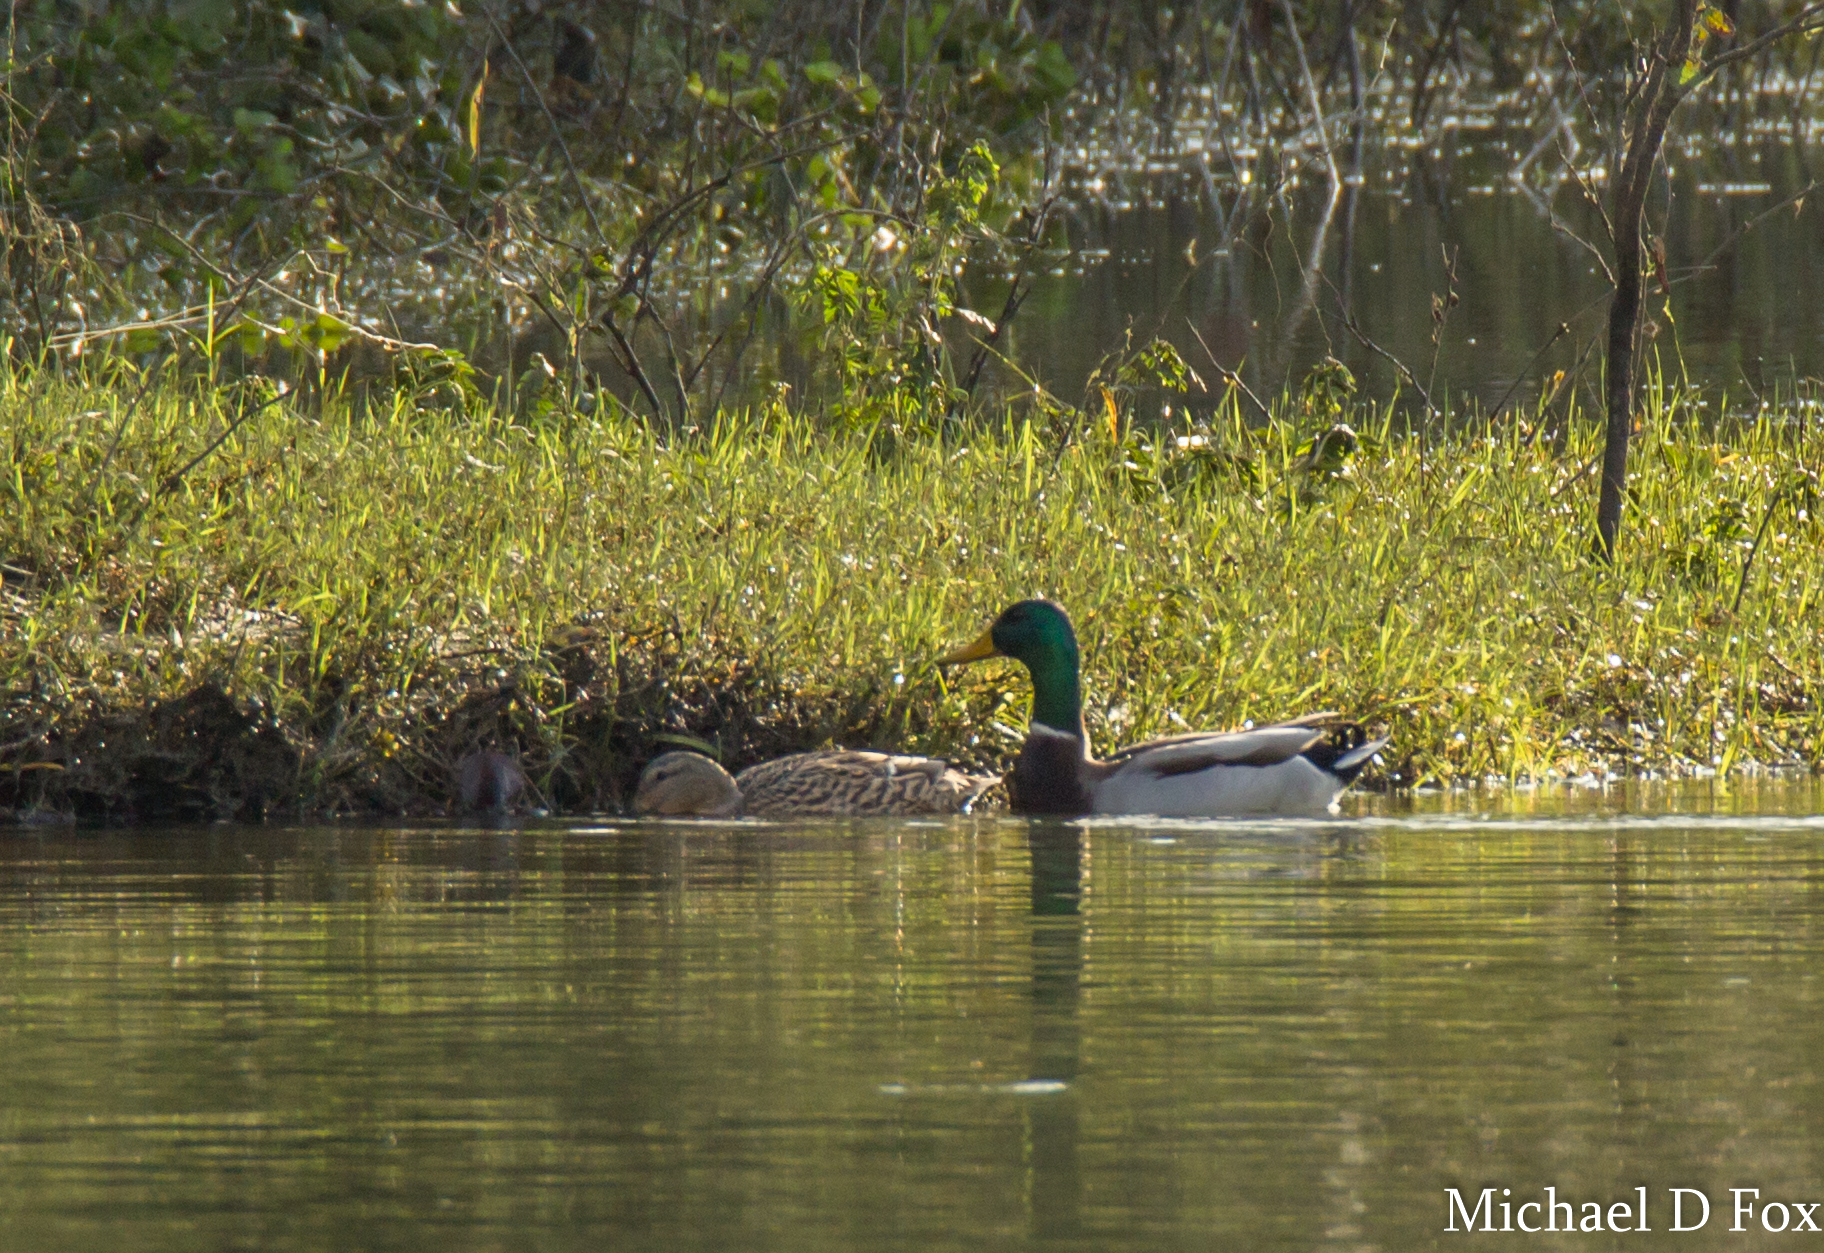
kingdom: Animalia
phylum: Chordata
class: Aves
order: Anseriformes
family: Anatidae
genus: Anas
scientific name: Anas platyrhynchos
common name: Mallard
